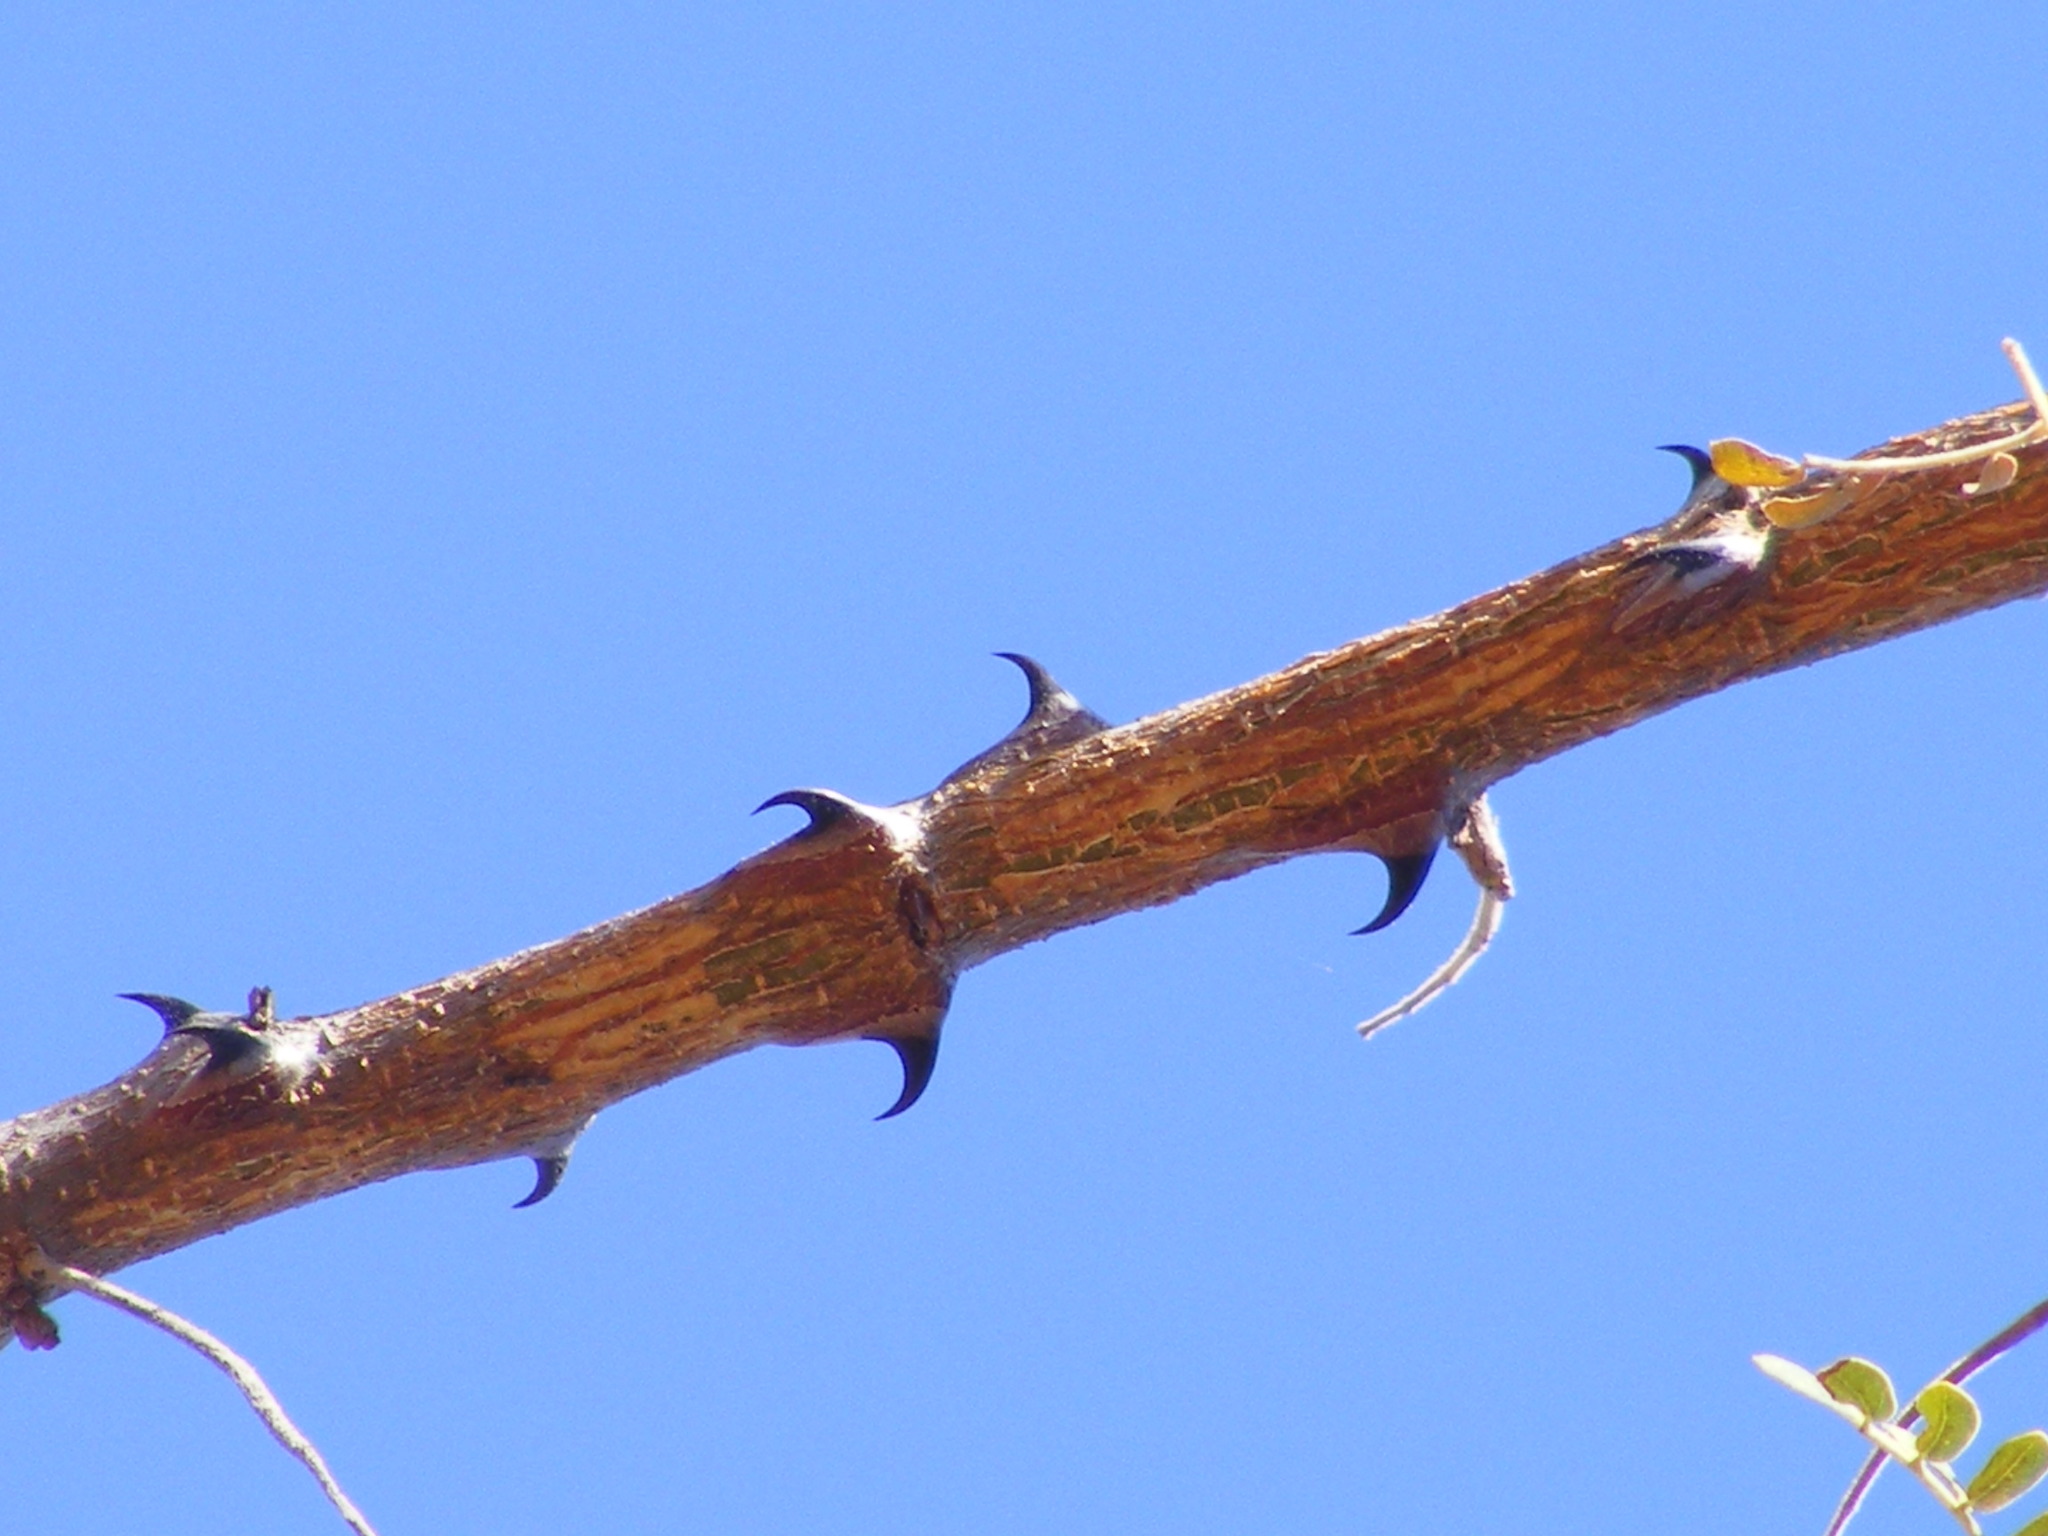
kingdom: Plantae
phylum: Tracheophyta
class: Magnoliopsida
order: Fabales
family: Fabaceae
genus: Senegalia
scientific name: Senegalia burkei
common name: Black monkey thorn
